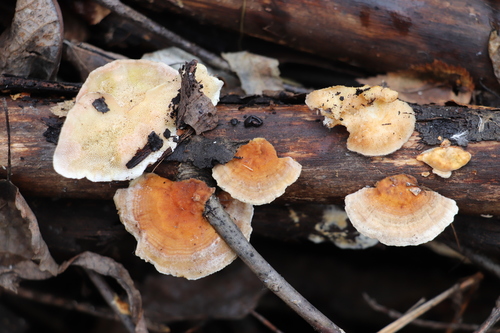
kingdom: Fungi
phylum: Basidiomycota
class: Agaricomycetes
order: Polyporales
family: Polyporaceae
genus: Trametes
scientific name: Trametes ochracea
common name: Ochre bracket
